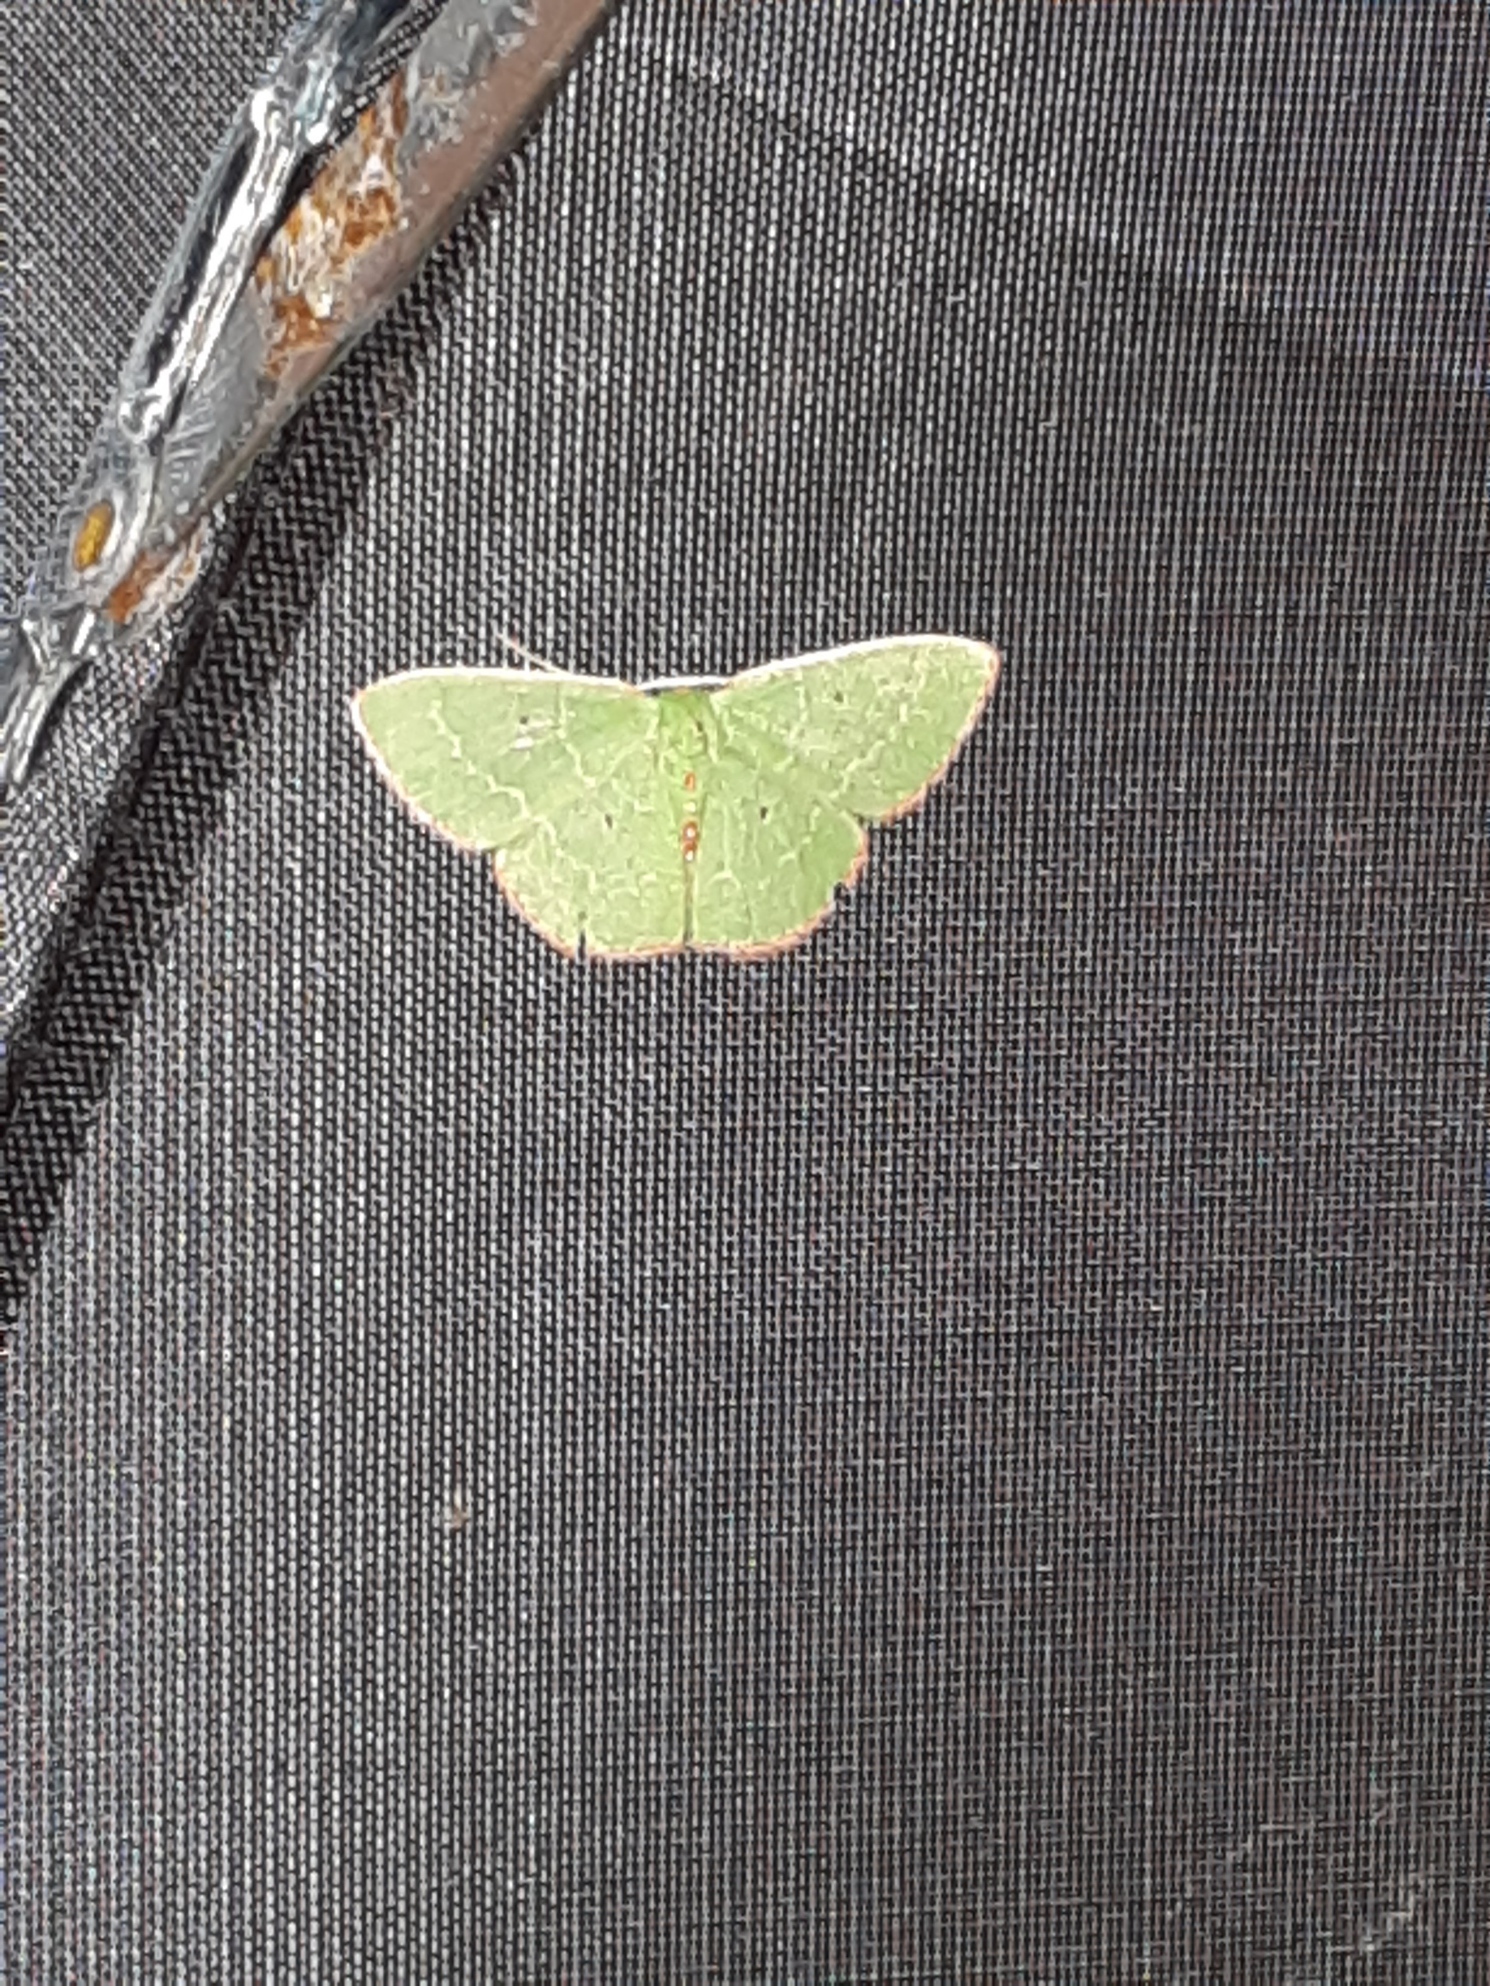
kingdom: Animalia
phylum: Arthropoda
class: Insecta
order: Lepidoptera
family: Geometridae
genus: Nemoria
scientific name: Nemoria lixaria
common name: Red-bordered emerald
